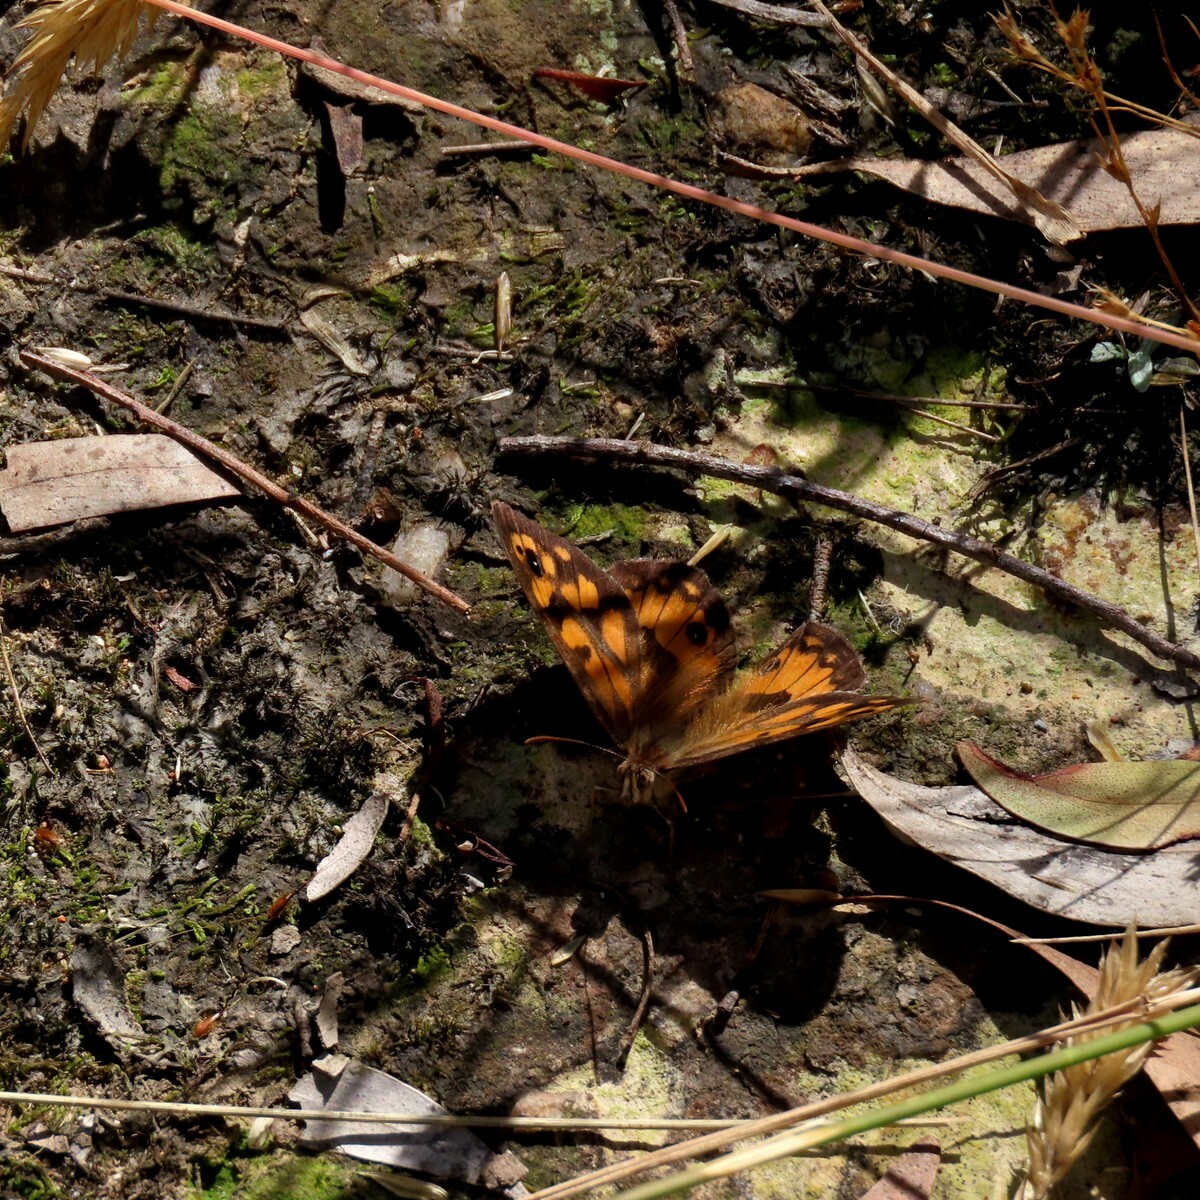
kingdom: Animalia
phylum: Arthropoda
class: Insecta
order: Lepidoptera
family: Nymphalidae
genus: Geitoneura
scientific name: Geitoneura klugii
